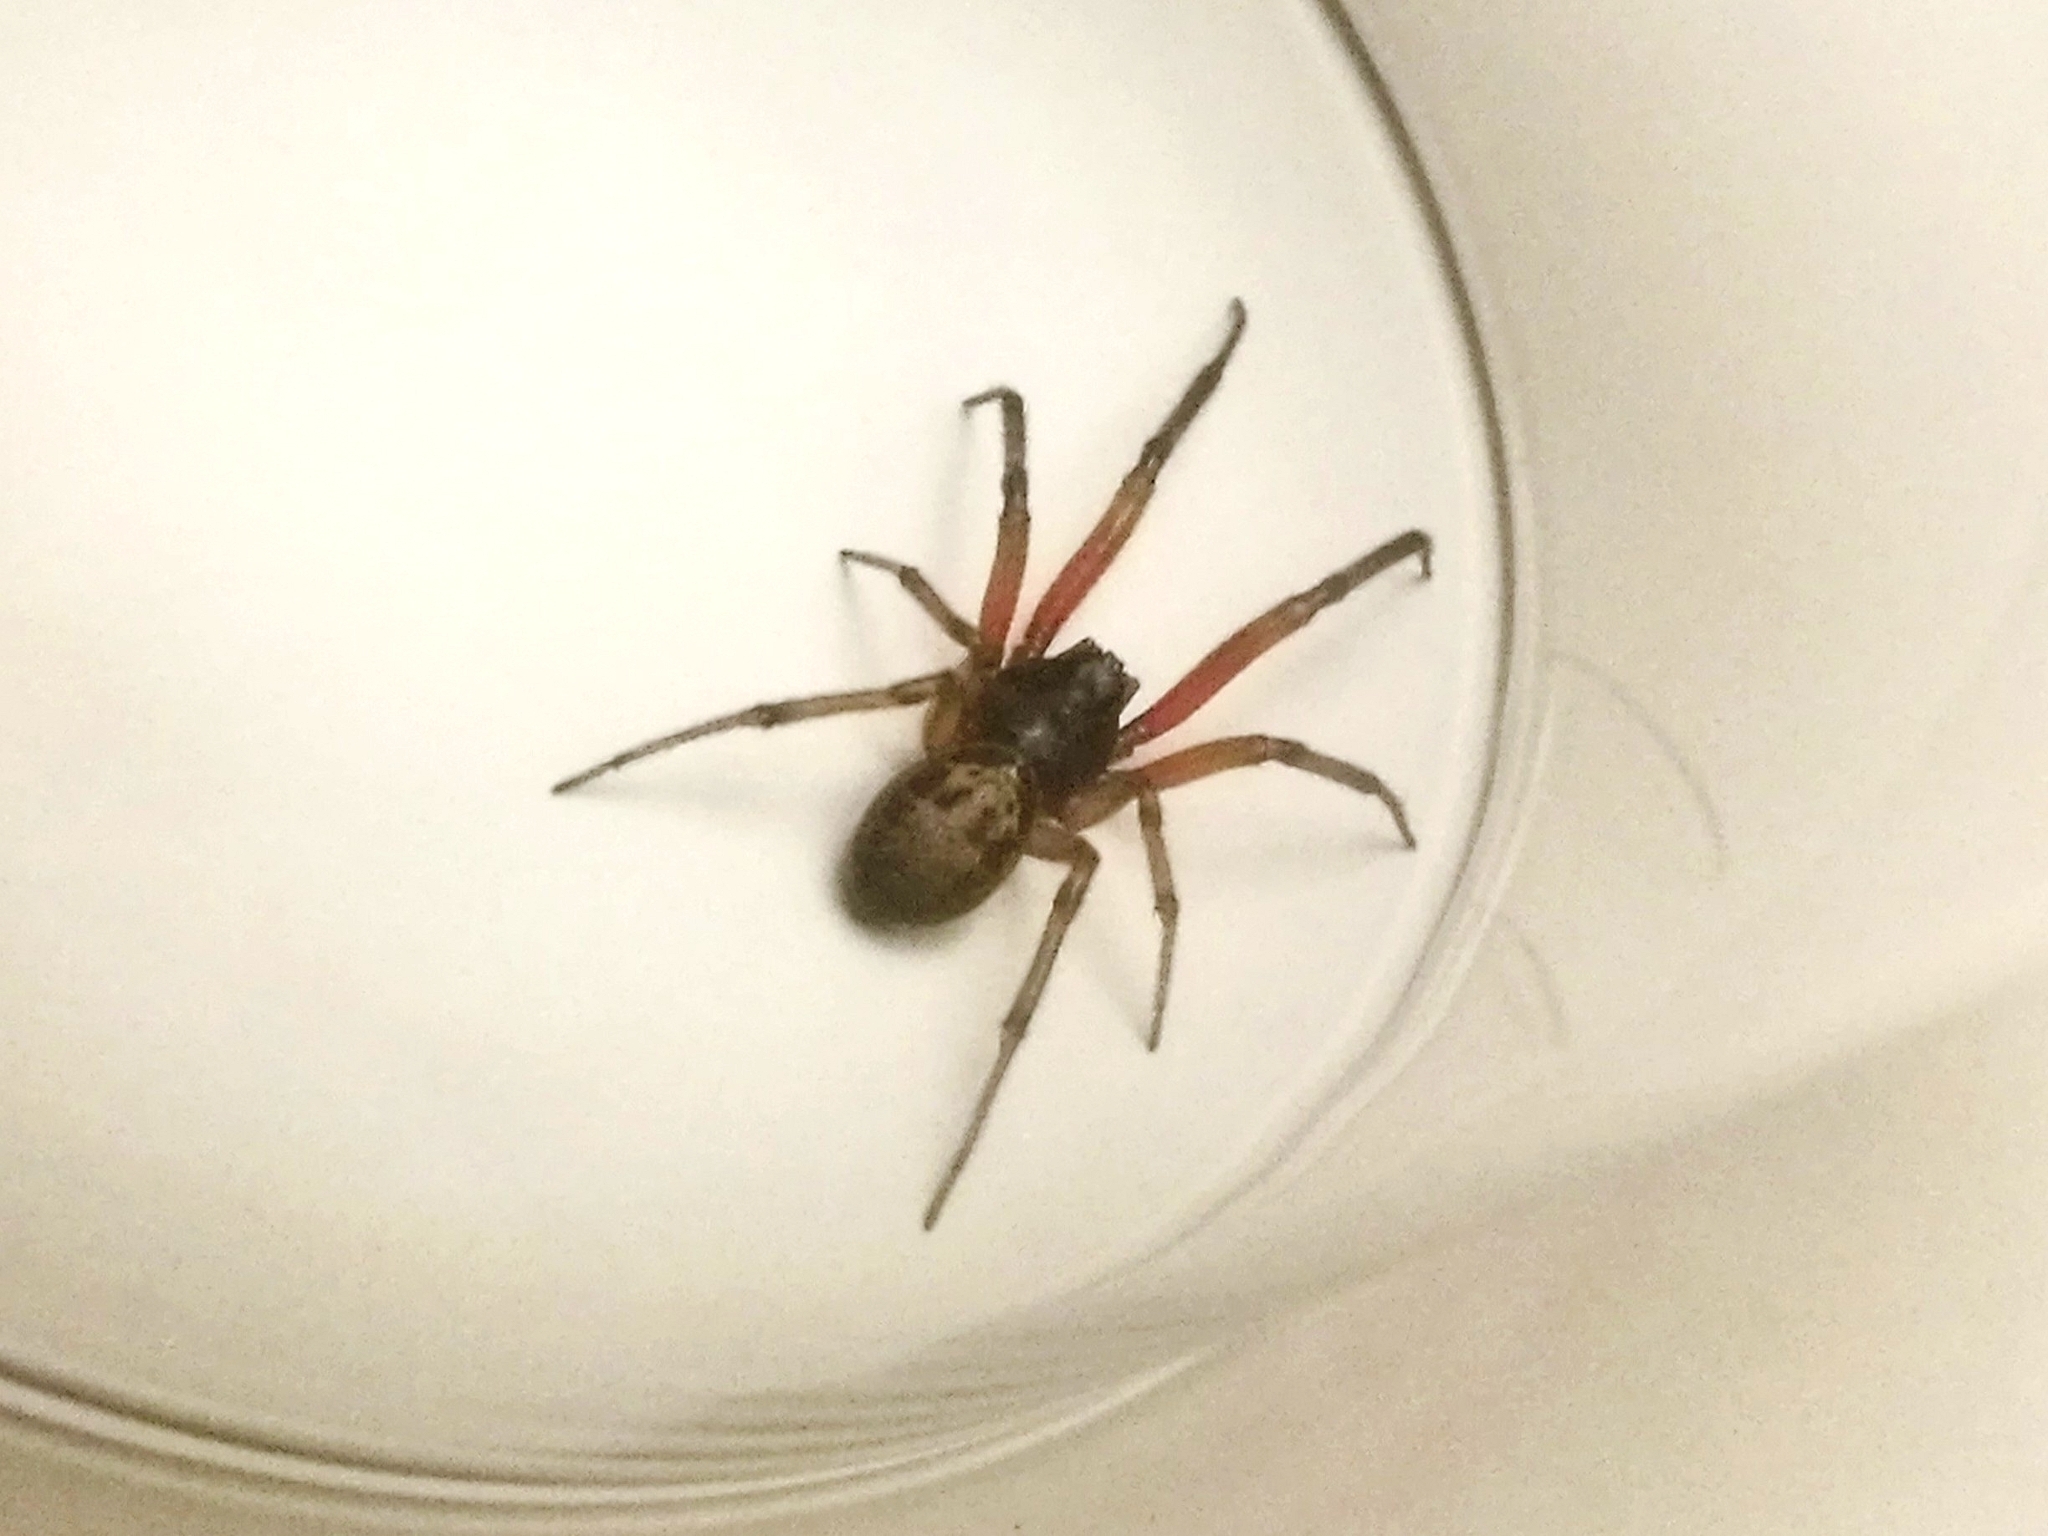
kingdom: Animalia
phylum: Arthropoda
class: Arachnida
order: Araneae
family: Theridiidae
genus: Steatoda
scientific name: Steatoda nobilis
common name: Cobweb weaver
